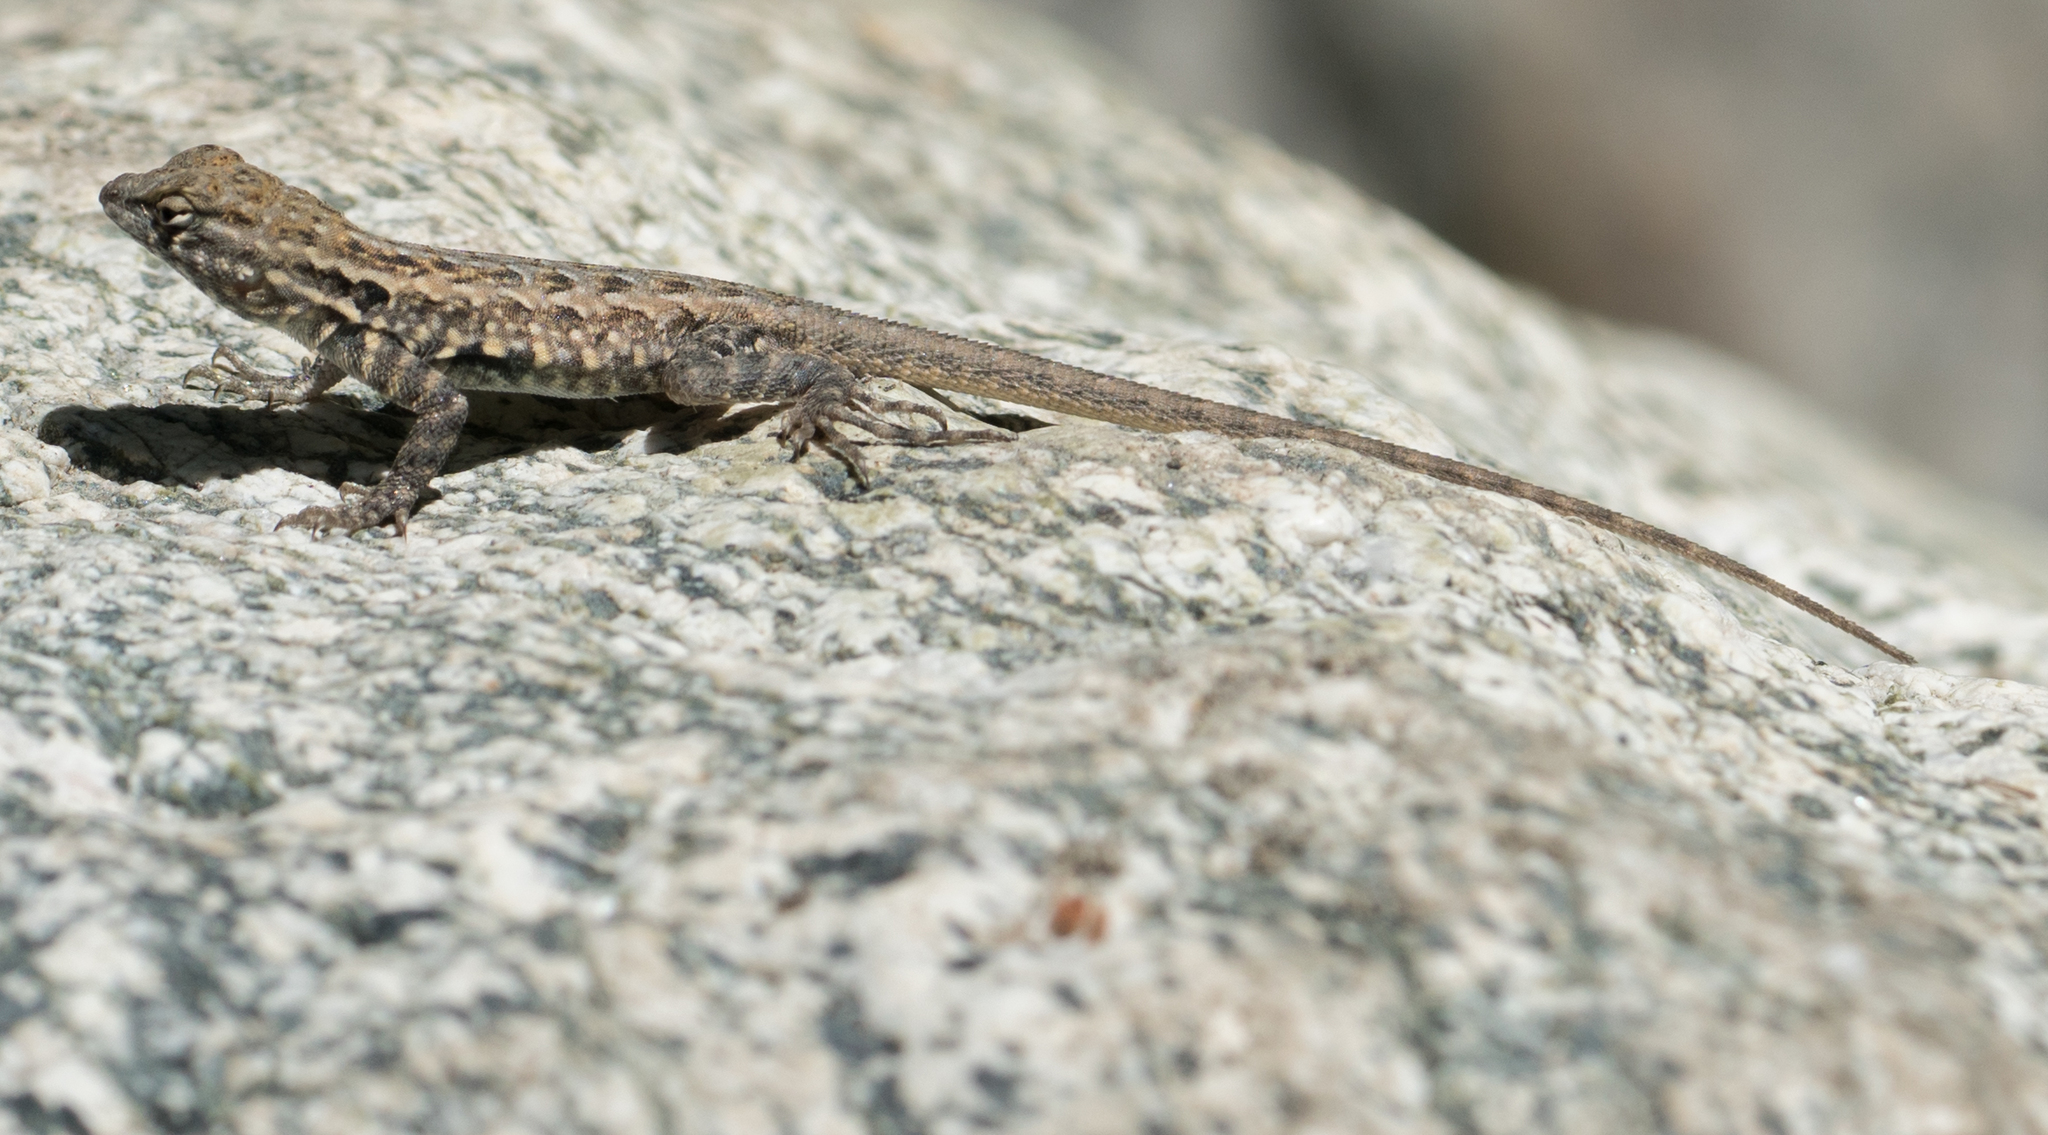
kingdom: Animalia
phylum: Chordata
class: Squamata
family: Phrynosomatidae
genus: Uta
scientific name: Uta stansburiana
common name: Side-blotched lizard
